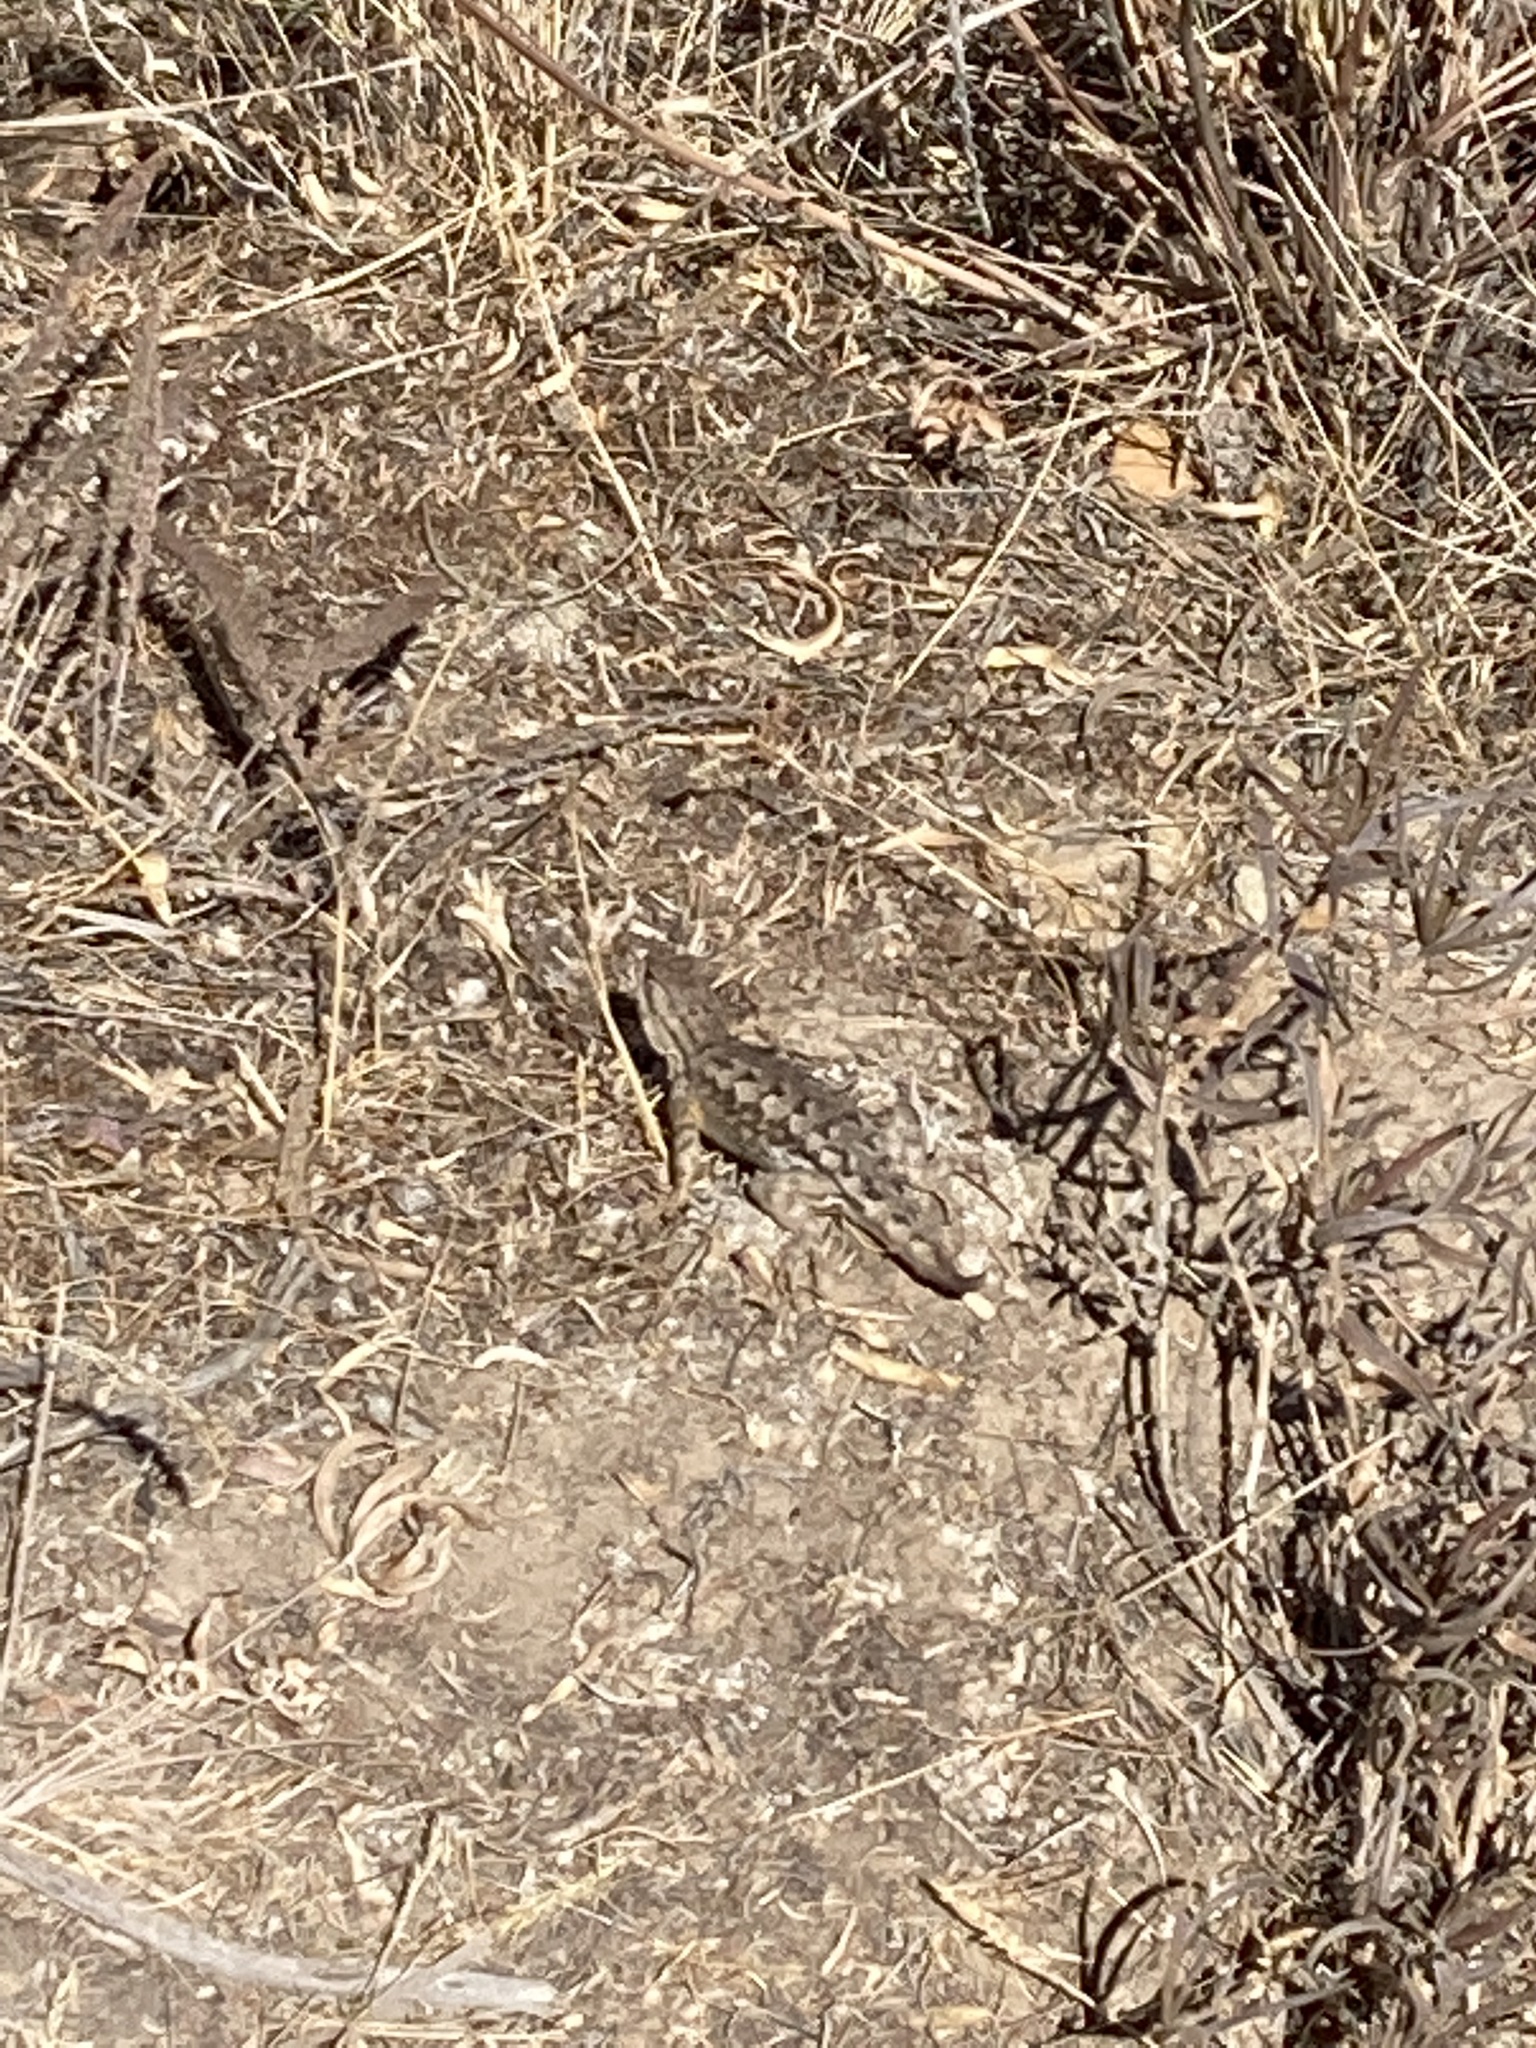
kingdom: Animalia
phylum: Chordata
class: Squamata
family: Phrynosomatidae
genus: Sceloporus
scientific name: Sceloporus occidentalis
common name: Western fence lizard
